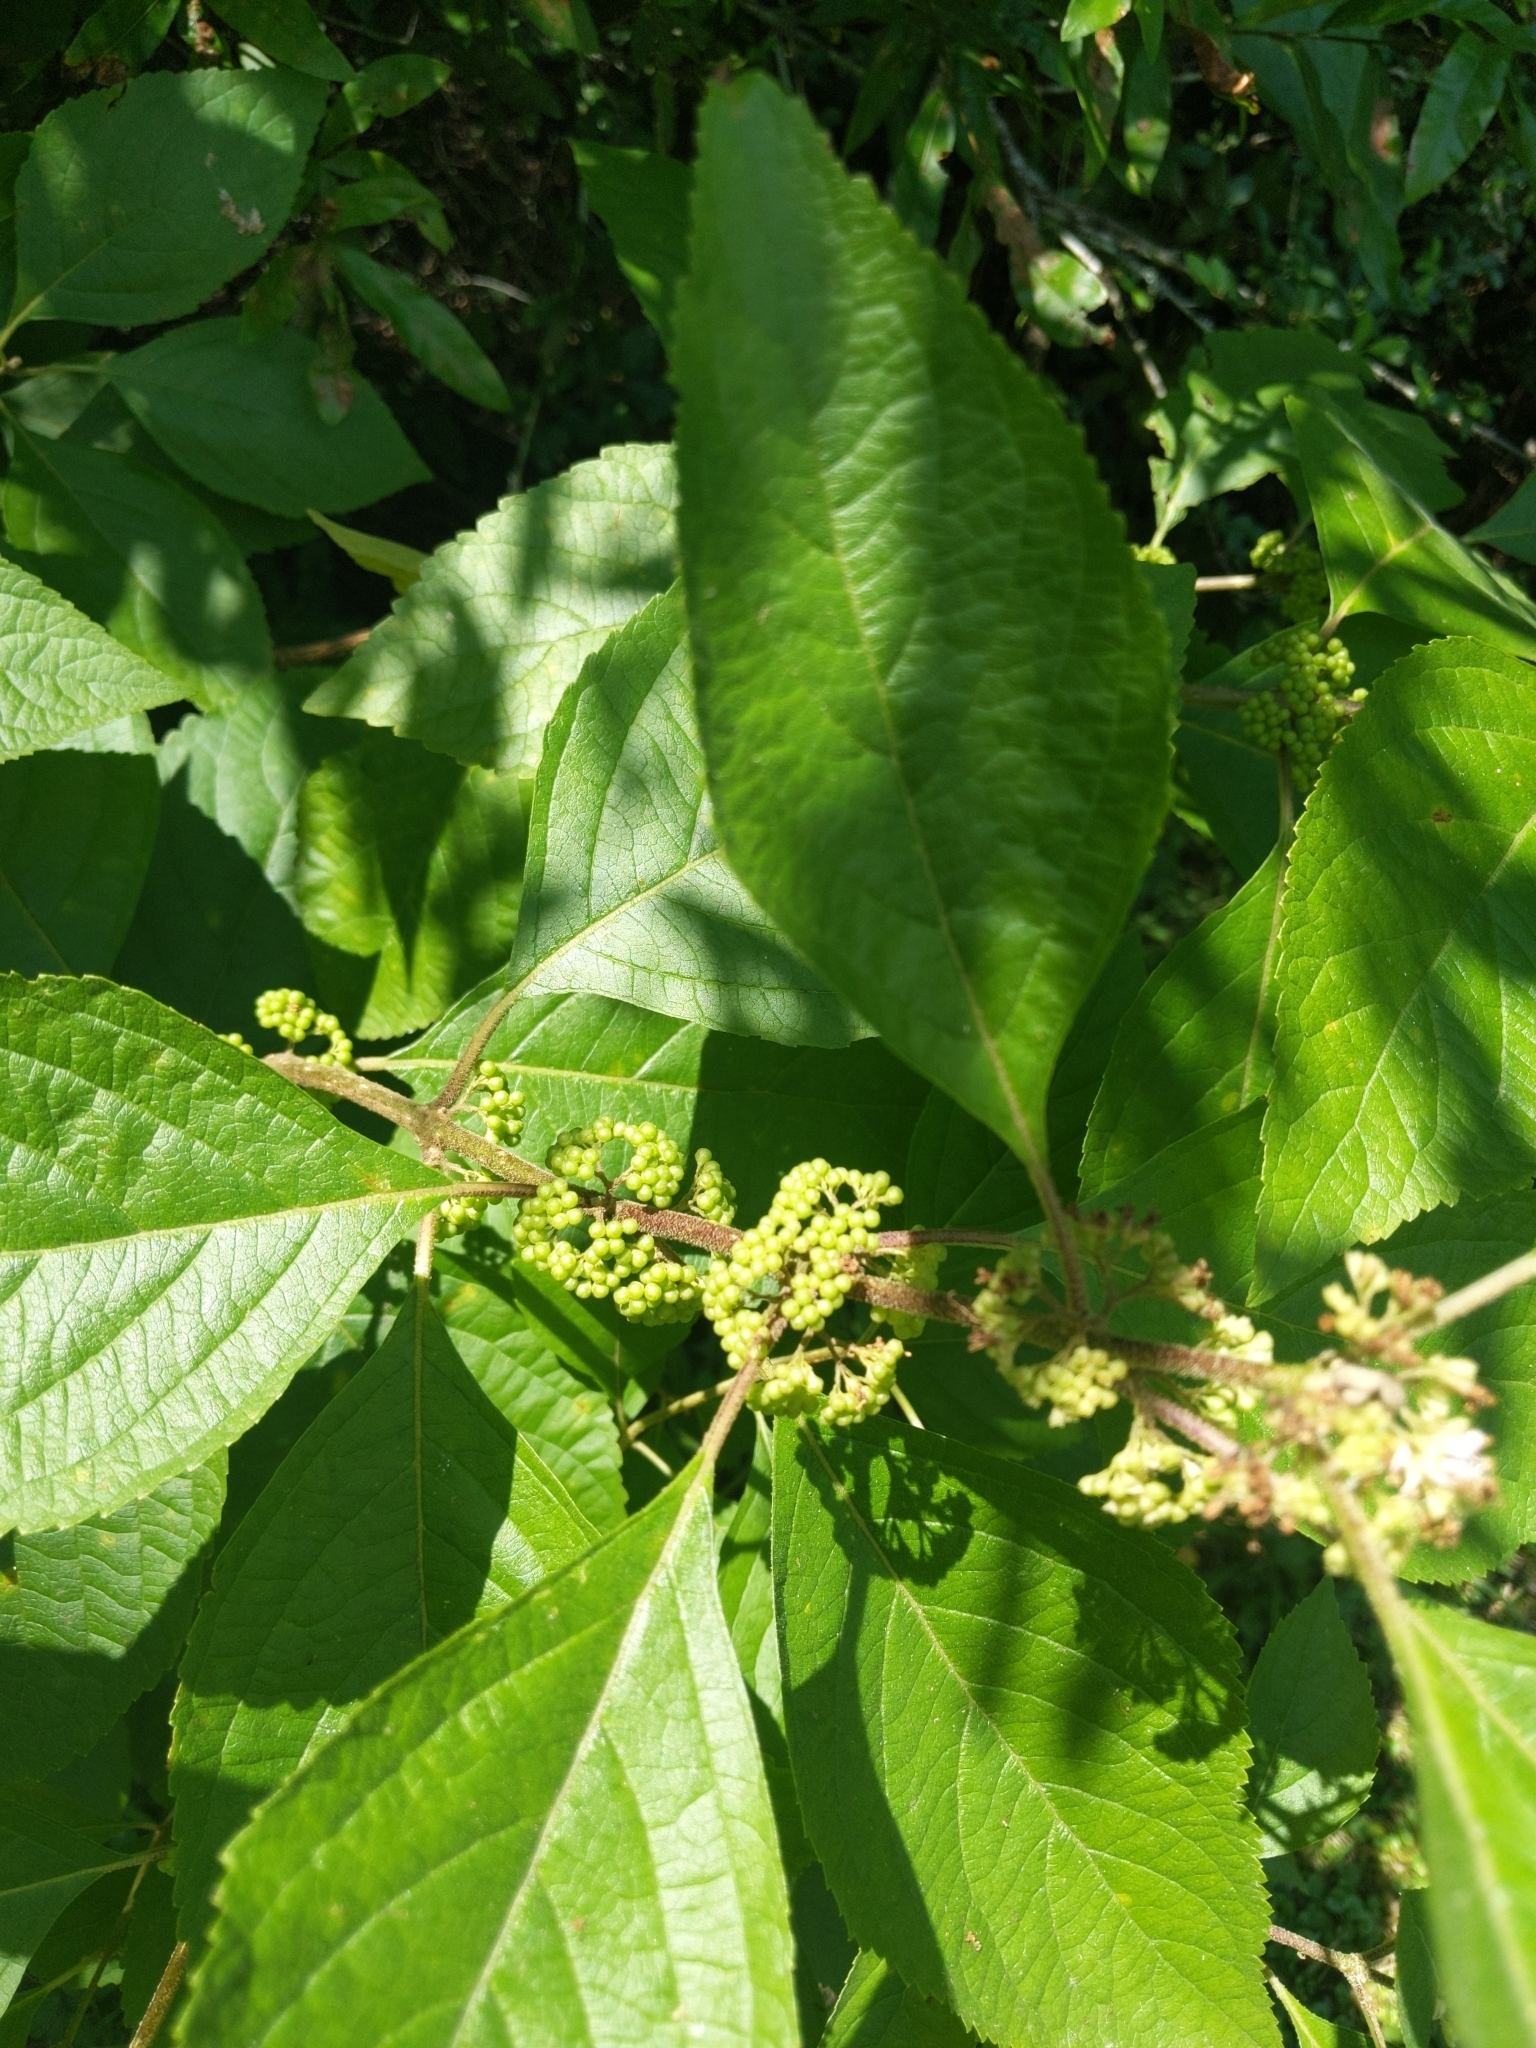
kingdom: Plantae
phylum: Tracheophyta
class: Magnoliopsida
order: Lamiales
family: Lamiaceae
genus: Callicarpa
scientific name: Callicarpa americana
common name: American beautyberry
